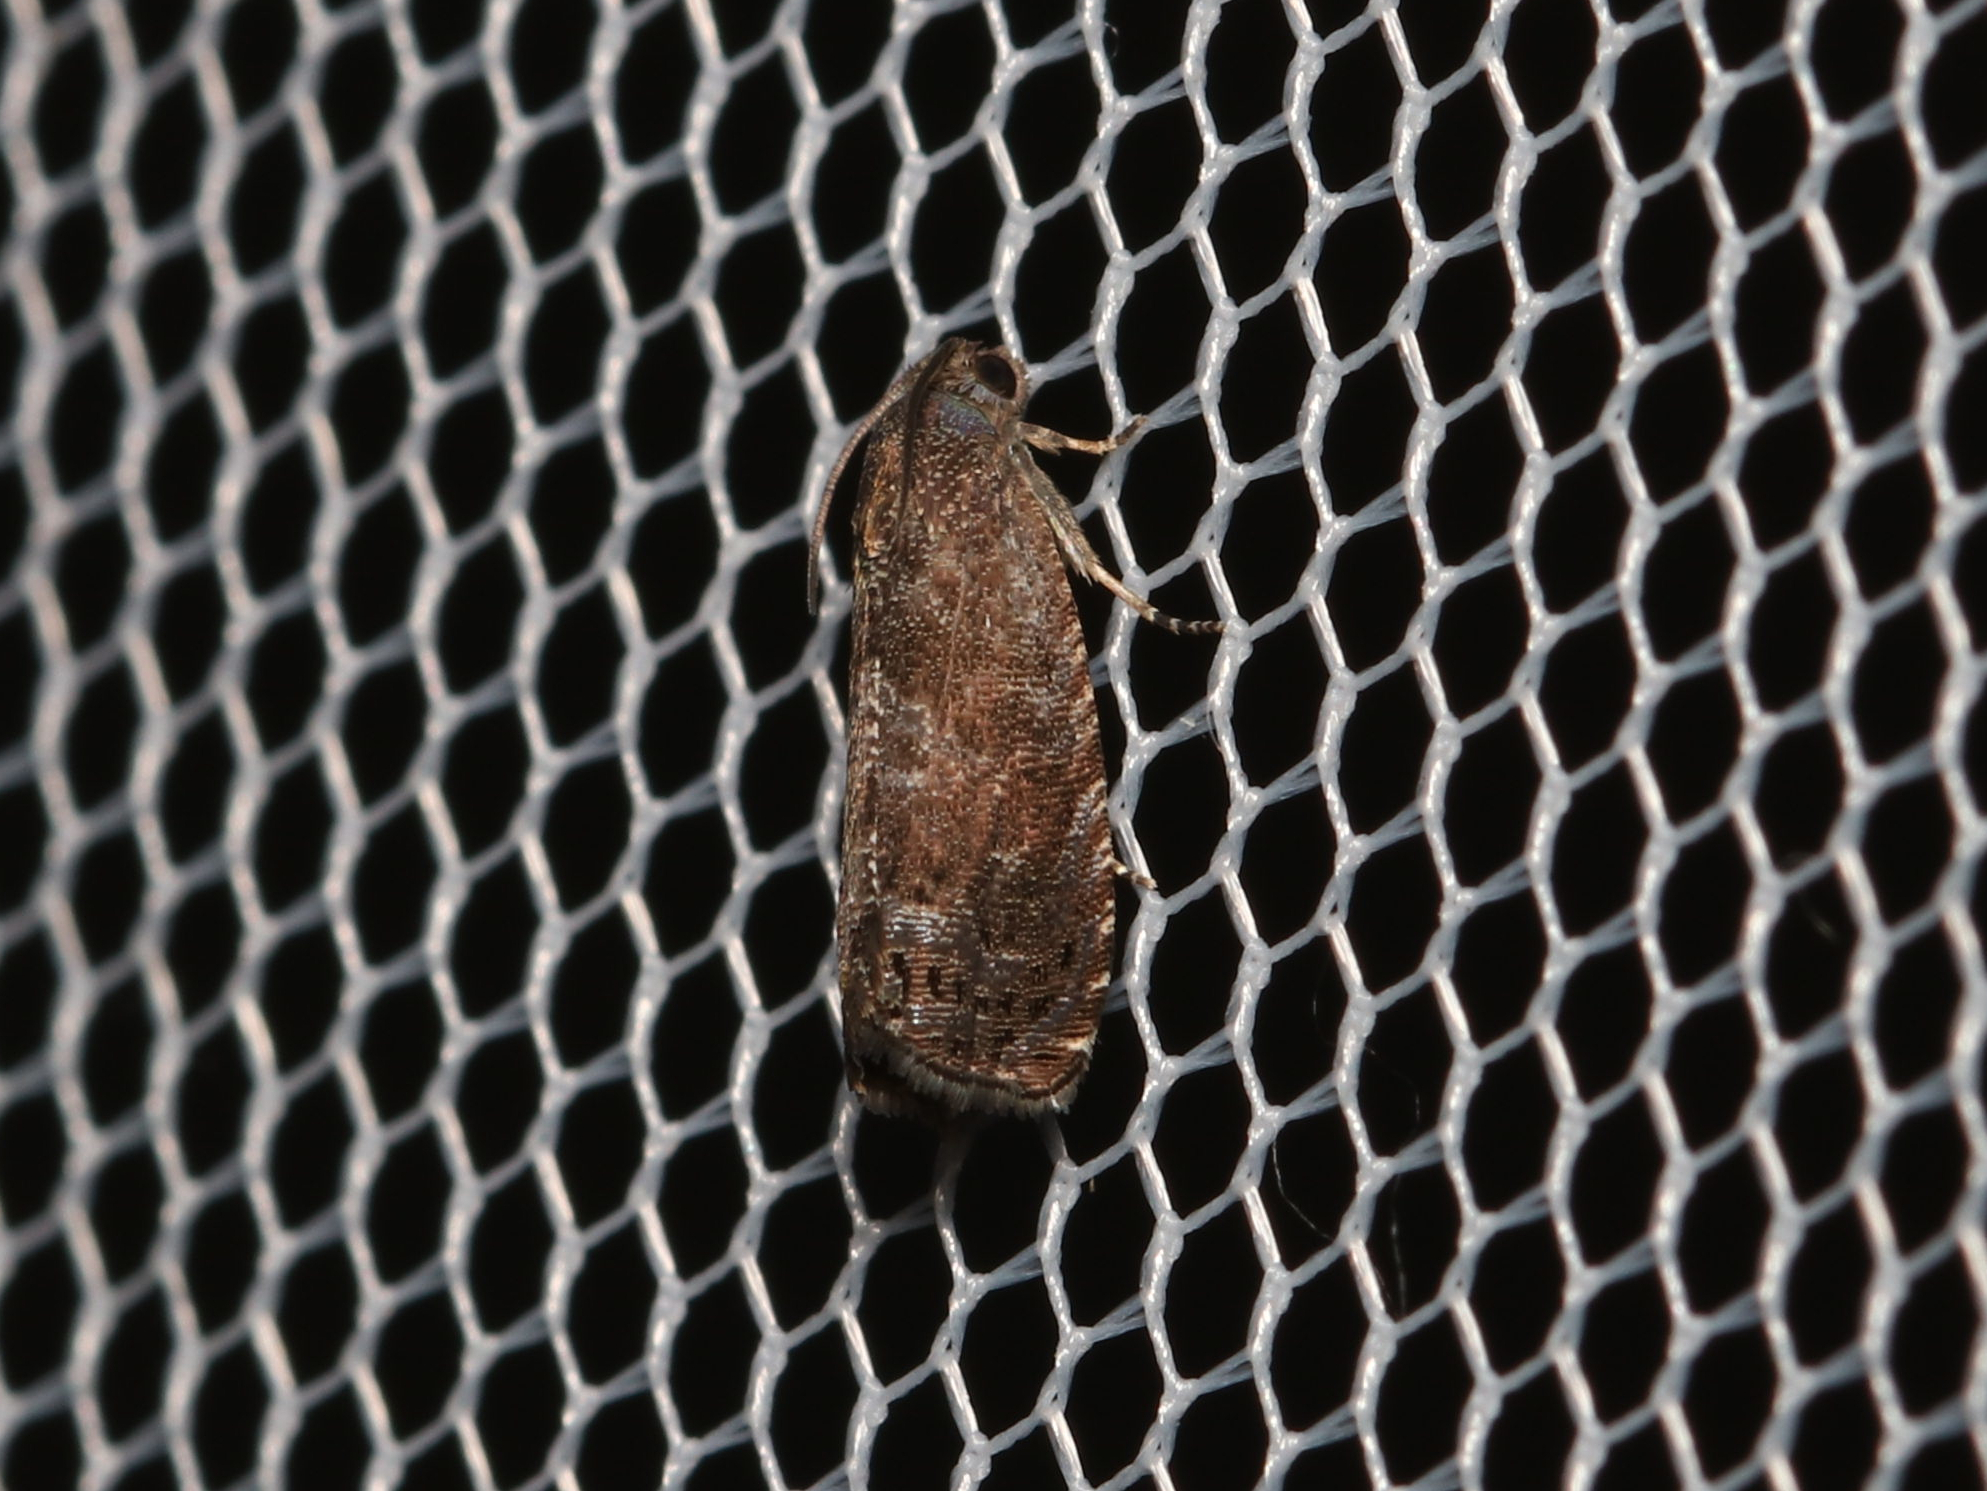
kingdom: Animalia
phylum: Arthropoda
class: Insecta
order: Lepidoptera
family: Noctuidae
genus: Aspila
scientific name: Aspila
